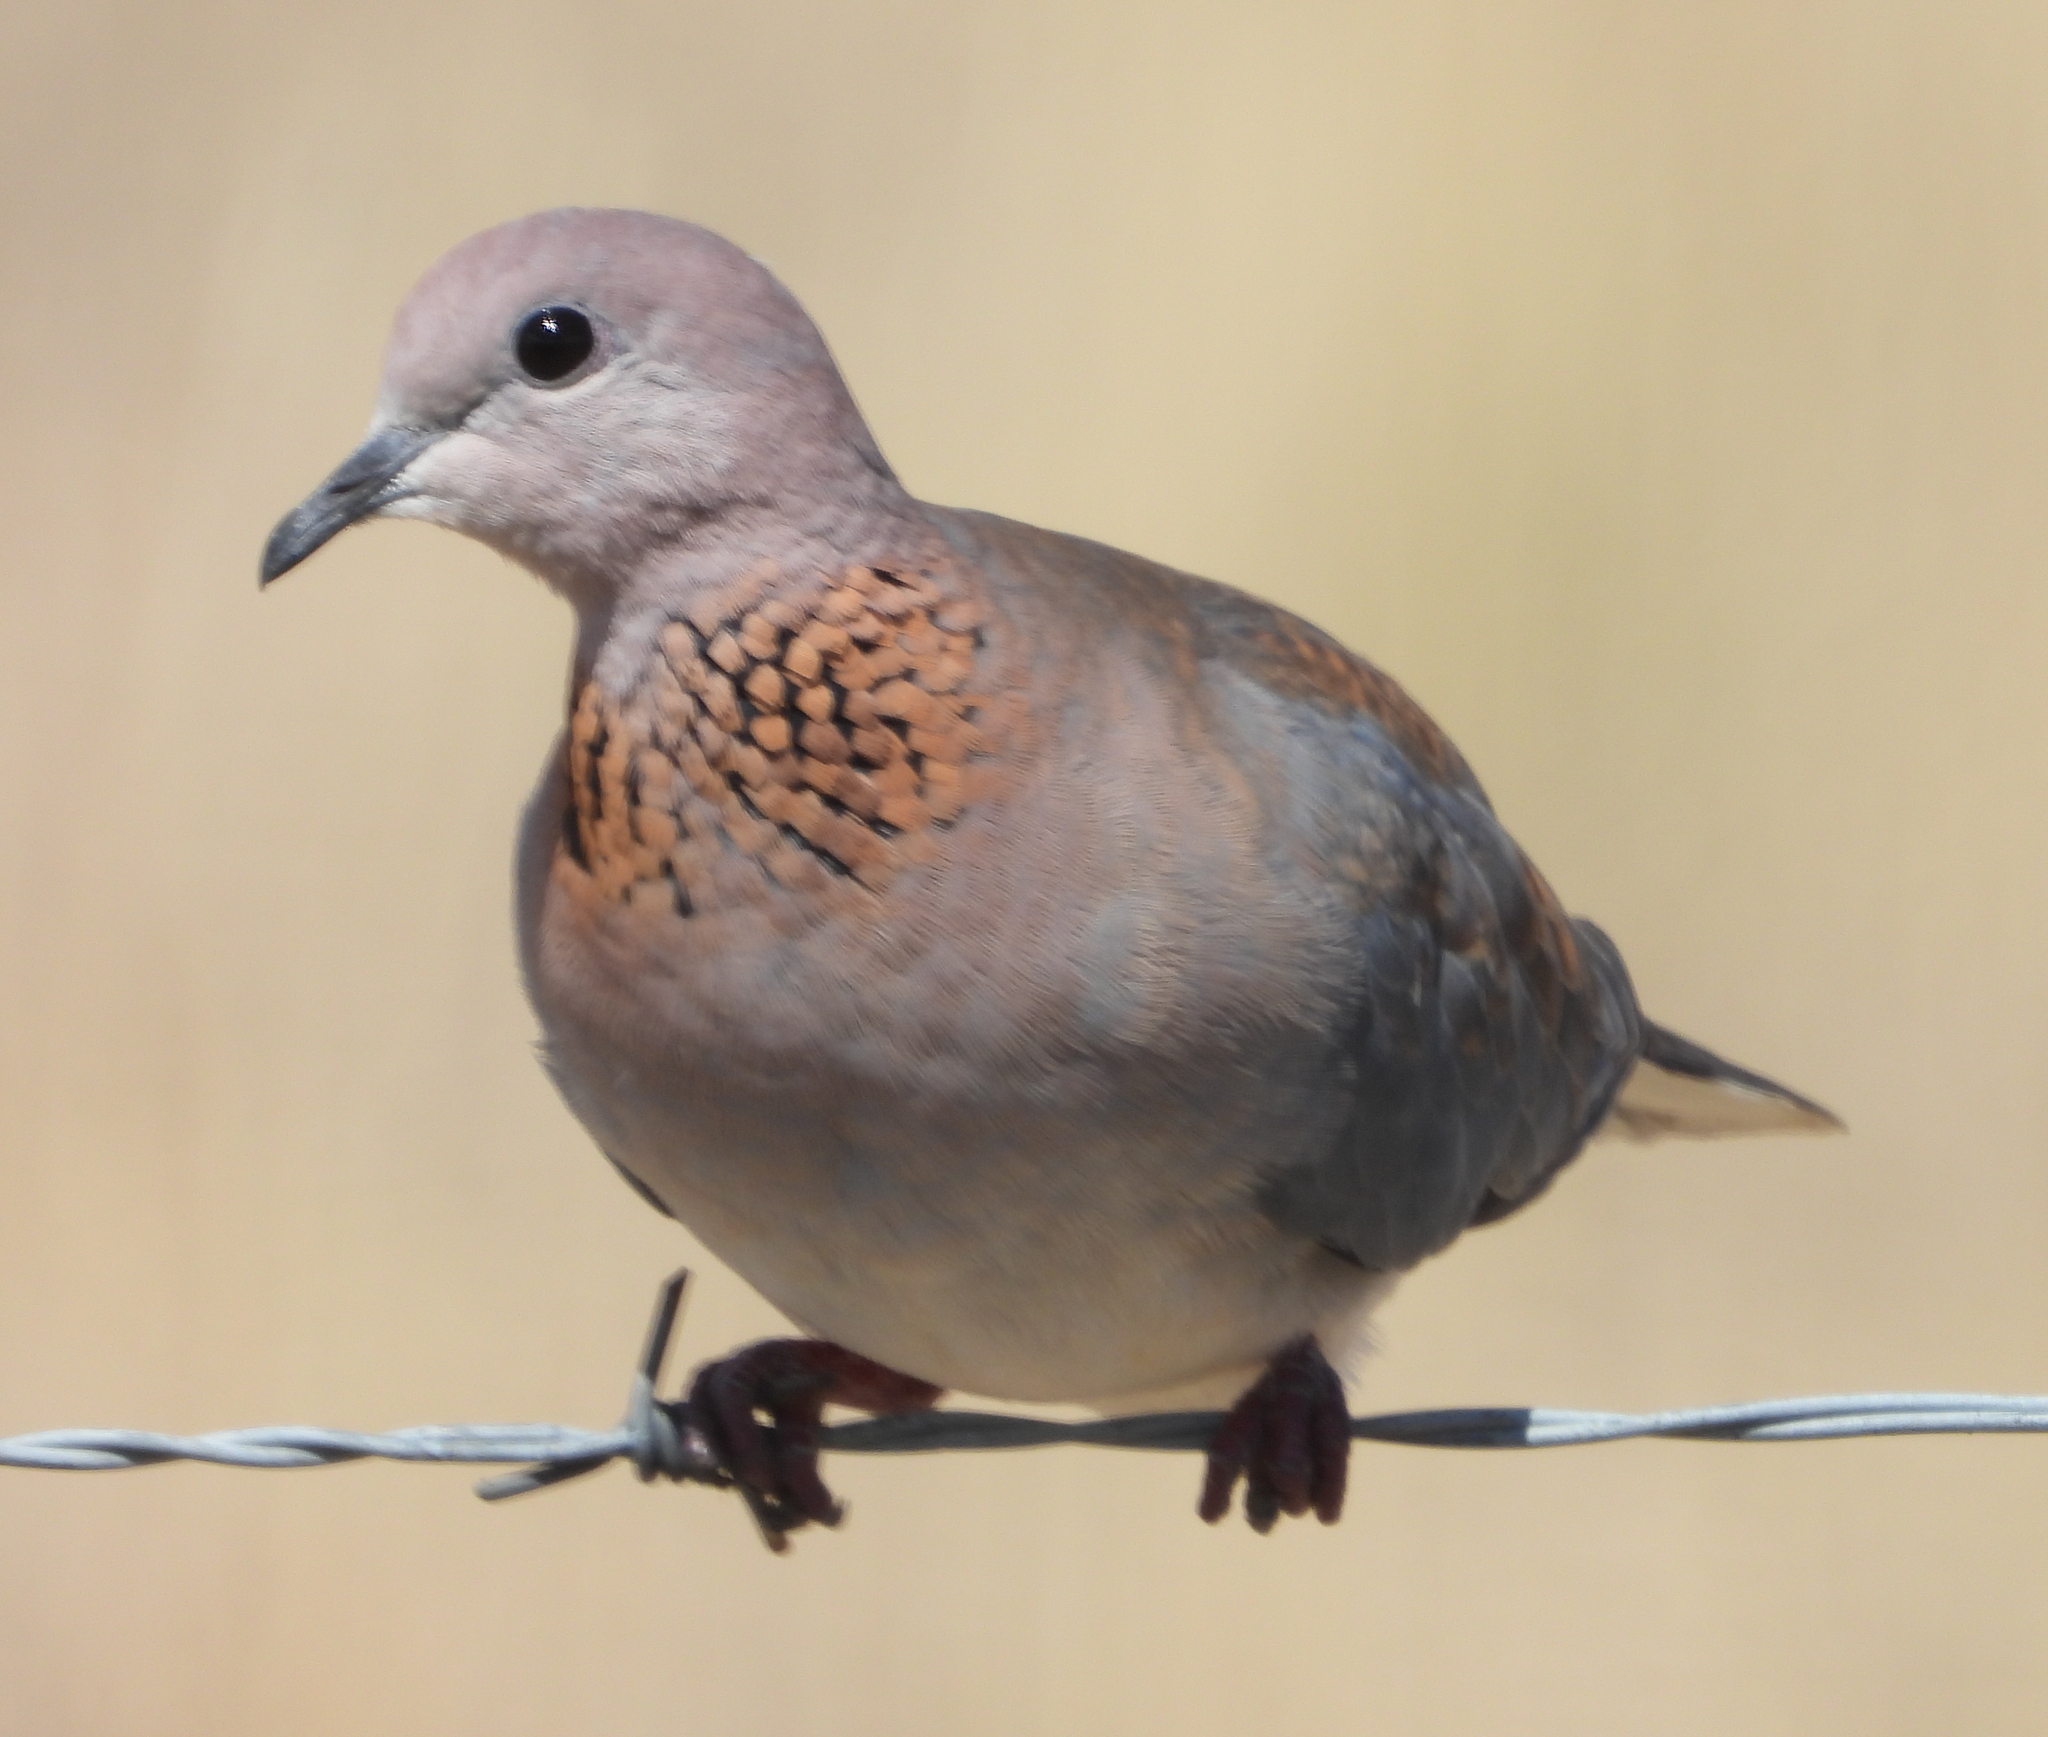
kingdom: Animalia
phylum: Chordata
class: Aves
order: Columbiformes
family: Columbidae
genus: Spilopelia
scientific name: Spilopelia senegalensis
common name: Laughing dove
